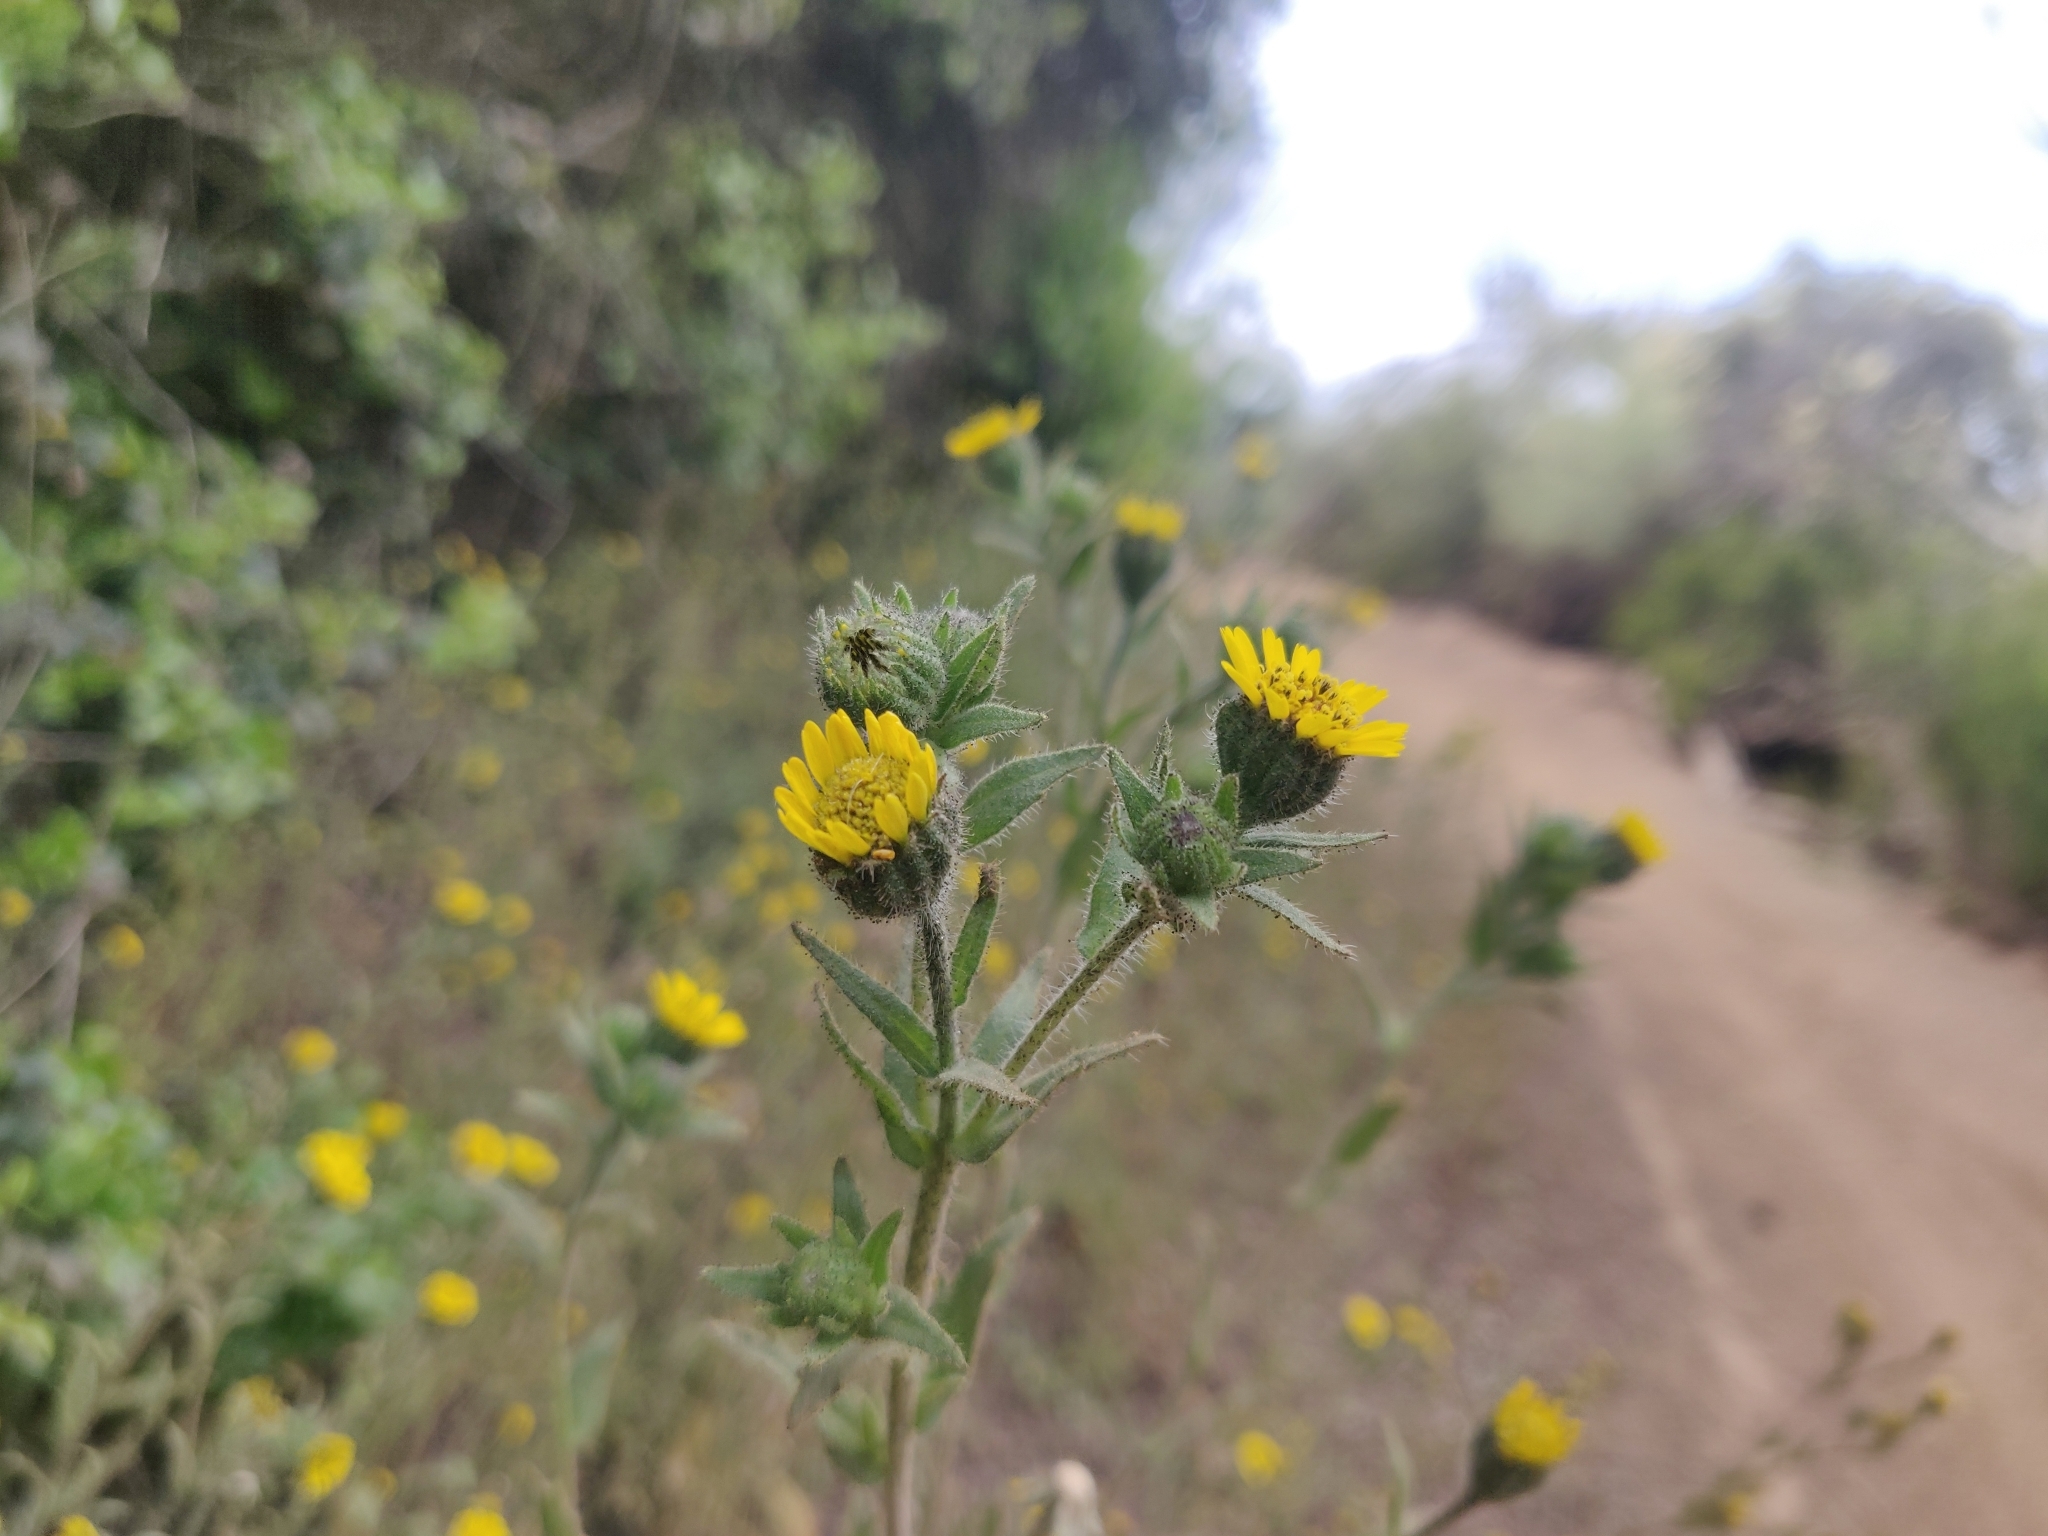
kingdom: Plantae
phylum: Tracheophyta
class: Magnoliopsida
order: Asterales
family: Asteraceae
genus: Layia
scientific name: Layia hieracioides
